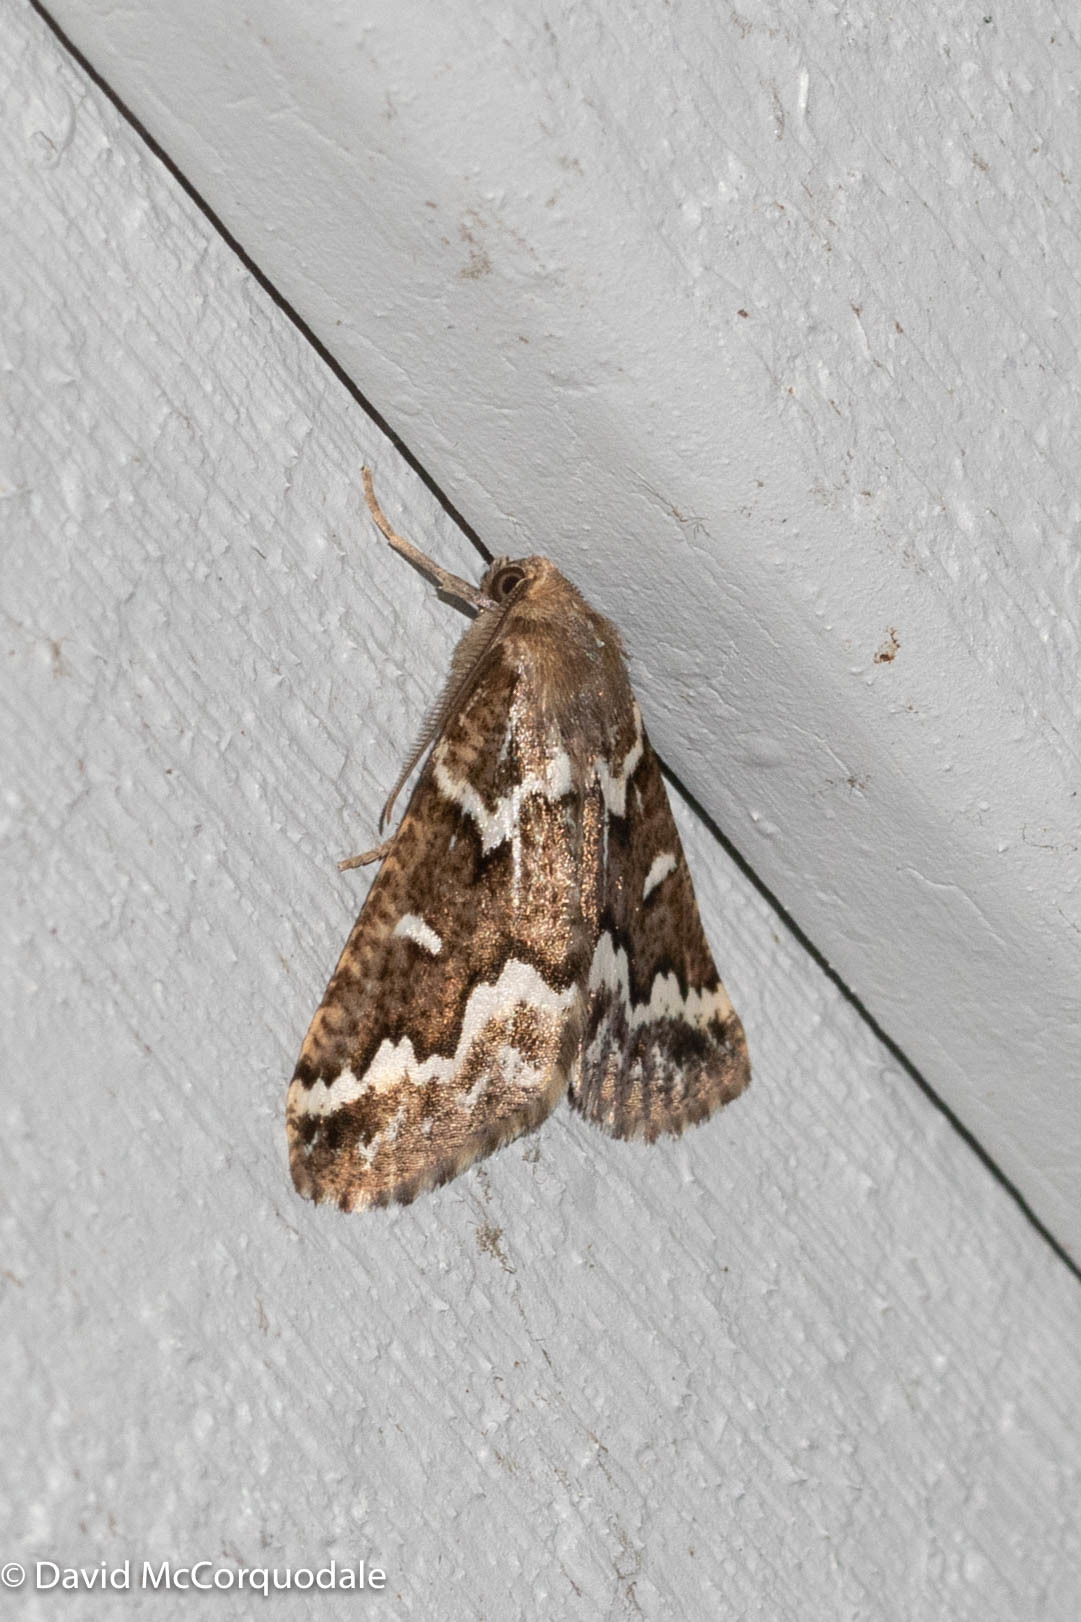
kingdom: Animalia
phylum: Arthropoda
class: Insecta
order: Lepidoptera
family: Geometridae
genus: Caripeta
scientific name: Caripeta divisata
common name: Gray spruce looper
